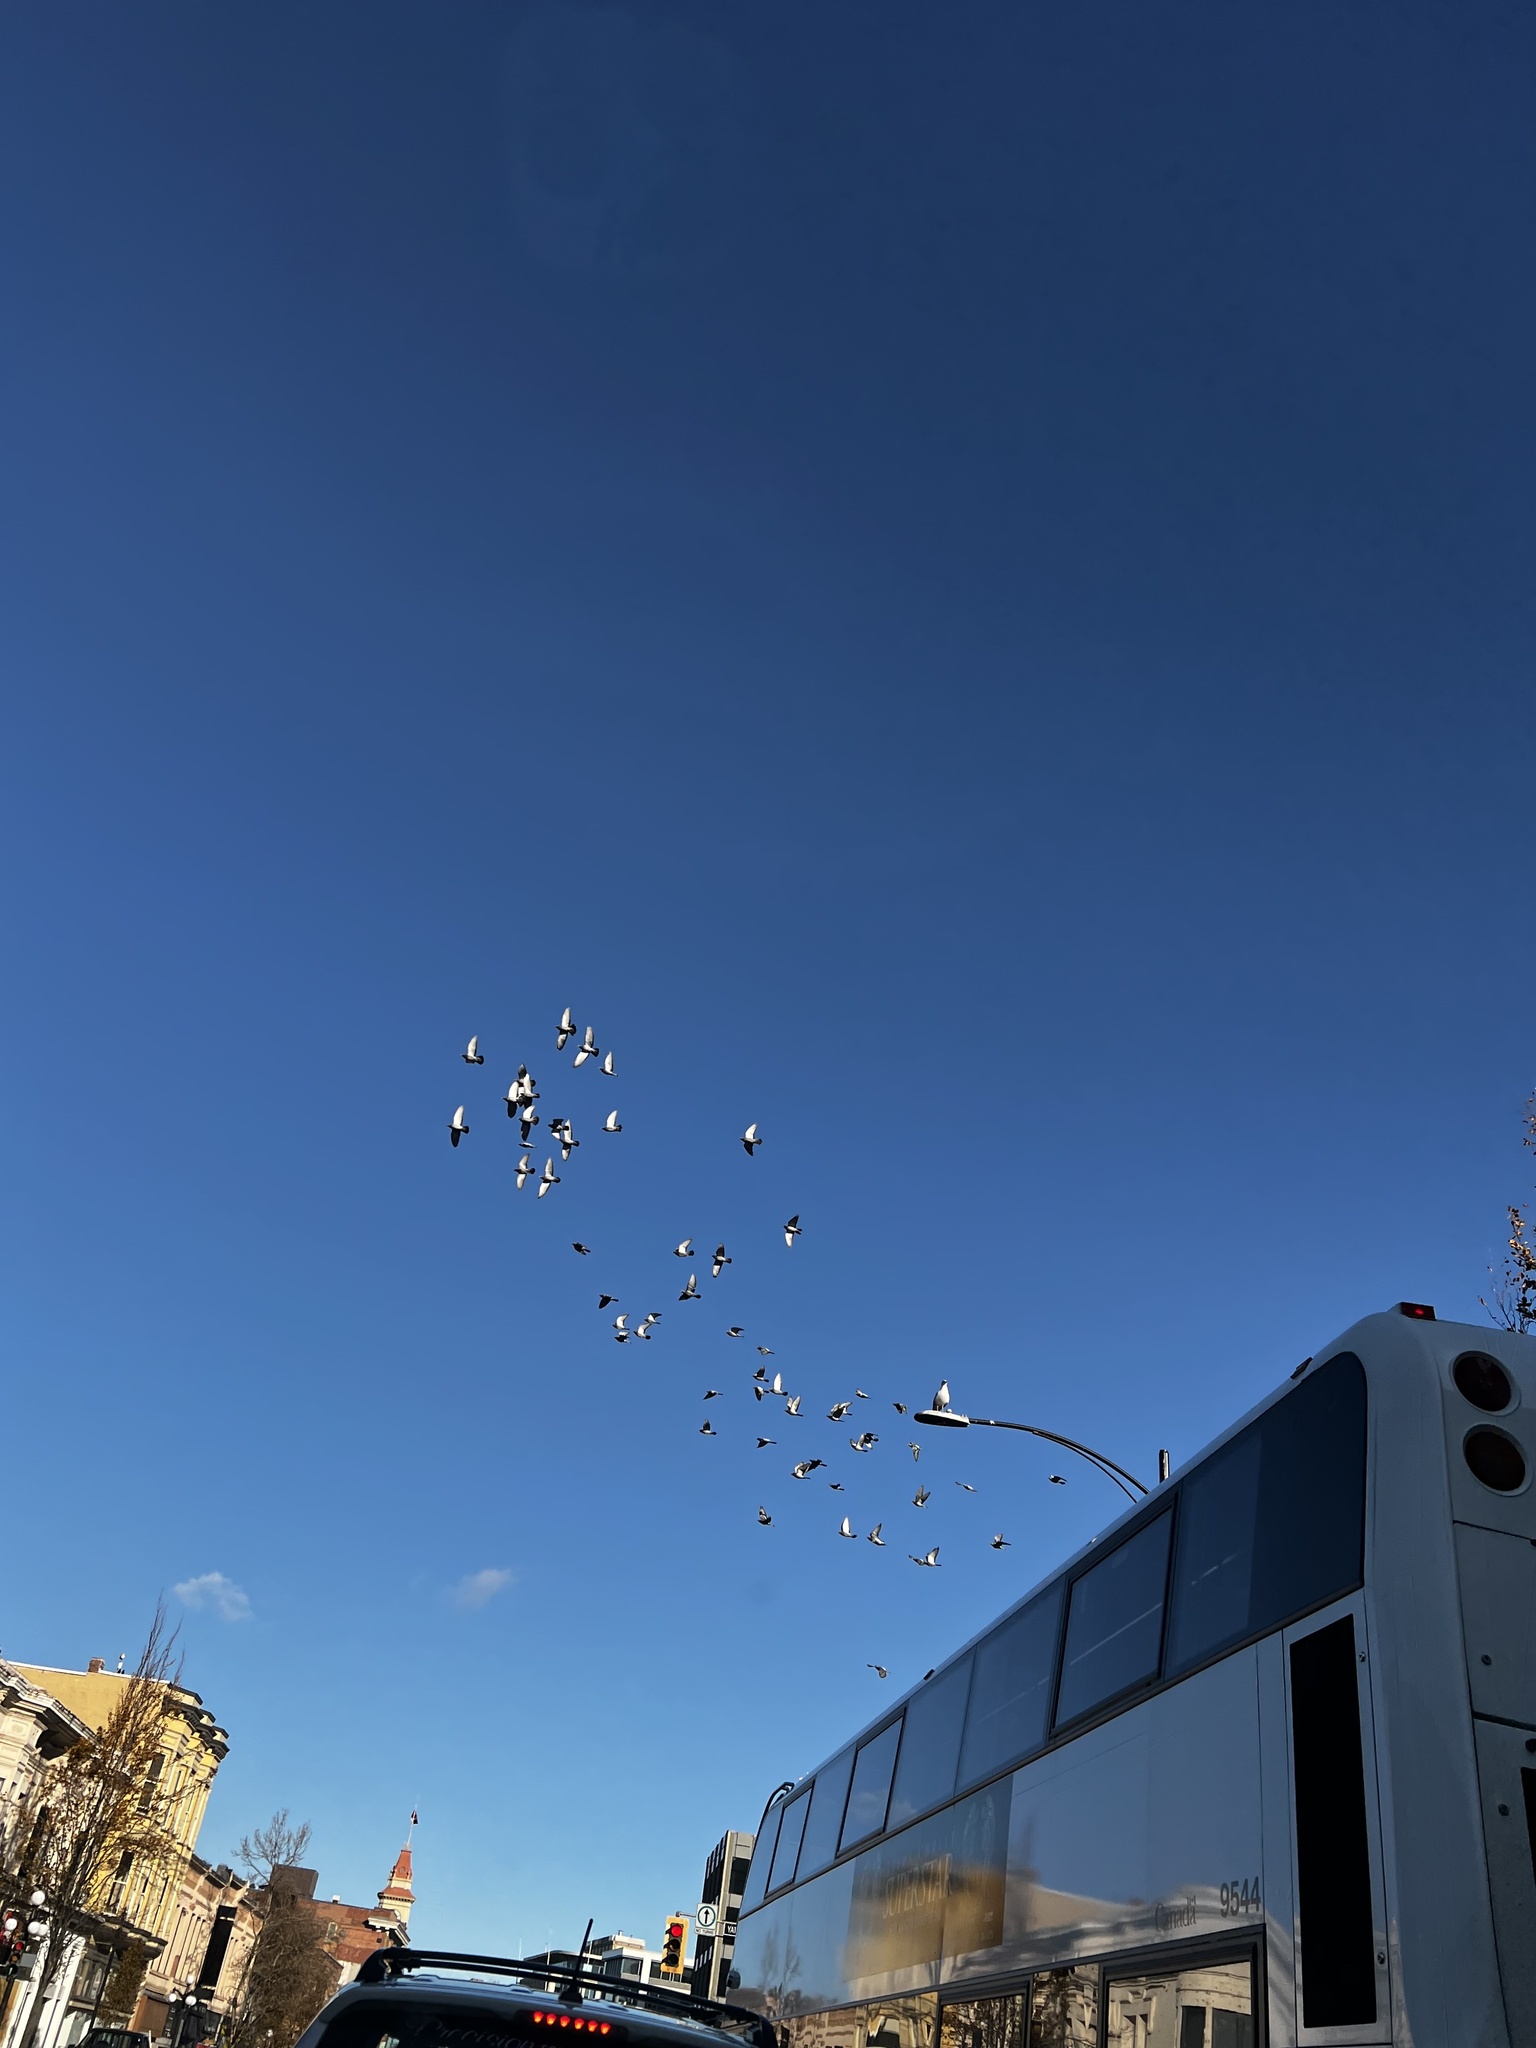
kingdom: Animalia
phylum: Chordata
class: Aves
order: Columbiformes
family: Columbidae
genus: Columba
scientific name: Columba livia
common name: Rock pigeon
